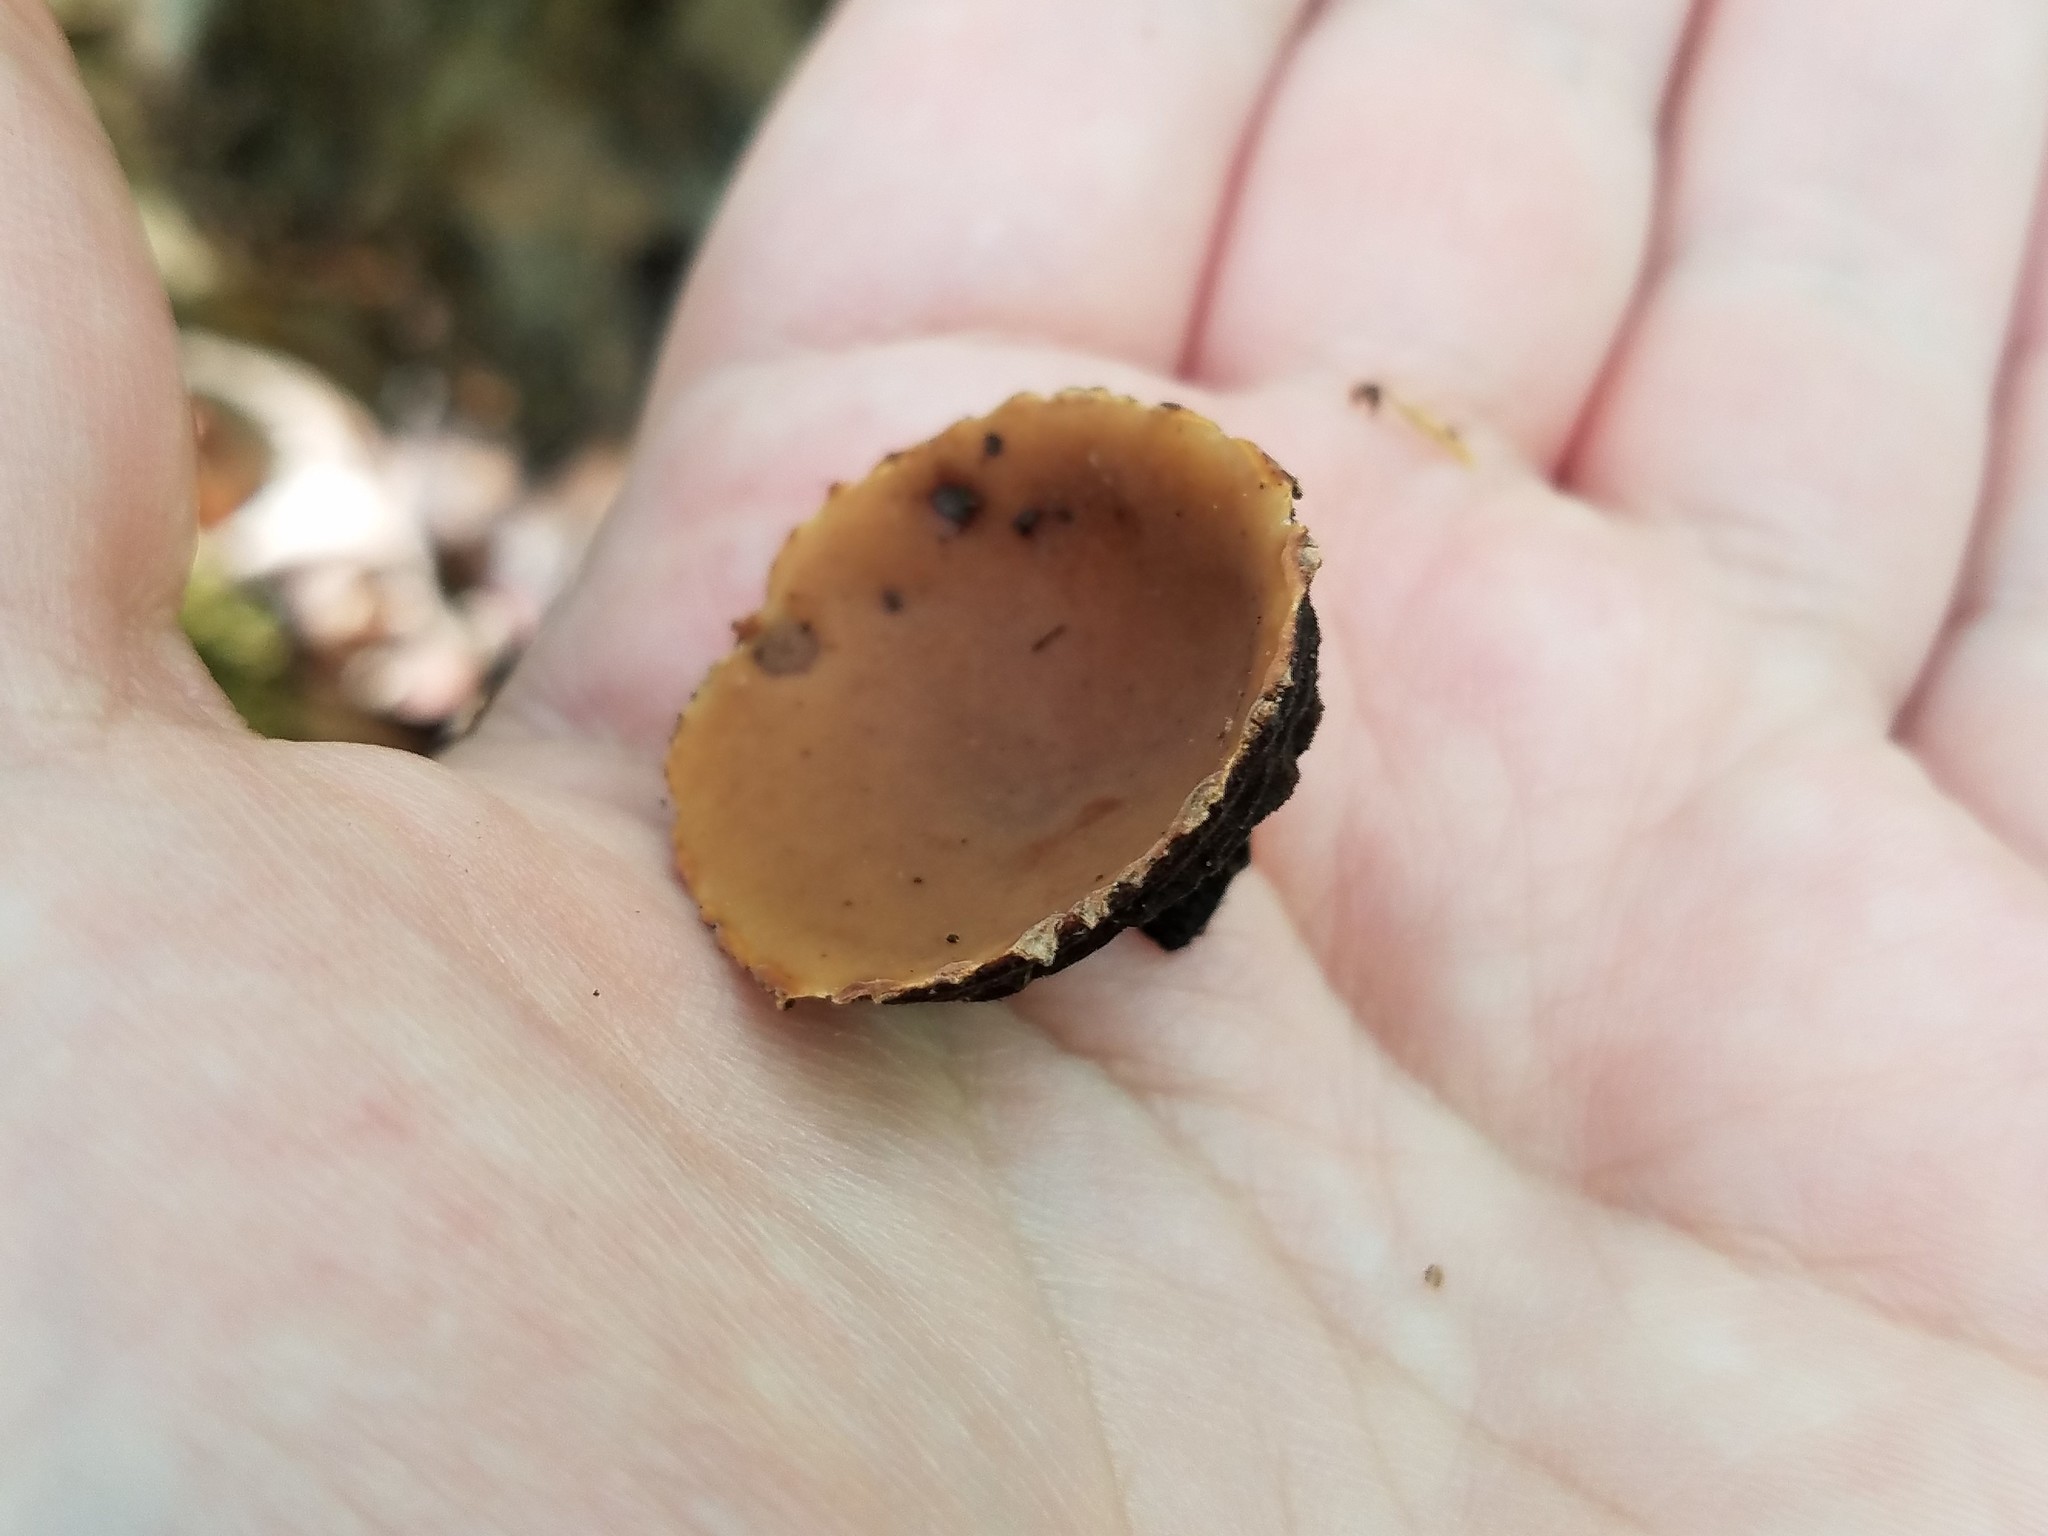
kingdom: Fungi
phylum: Ascomycota
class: Pezizomycetes
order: Pezizales
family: Sarcosomataceae
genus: Galiella
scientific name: Galiella rufa
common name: Hairy rubber cup
